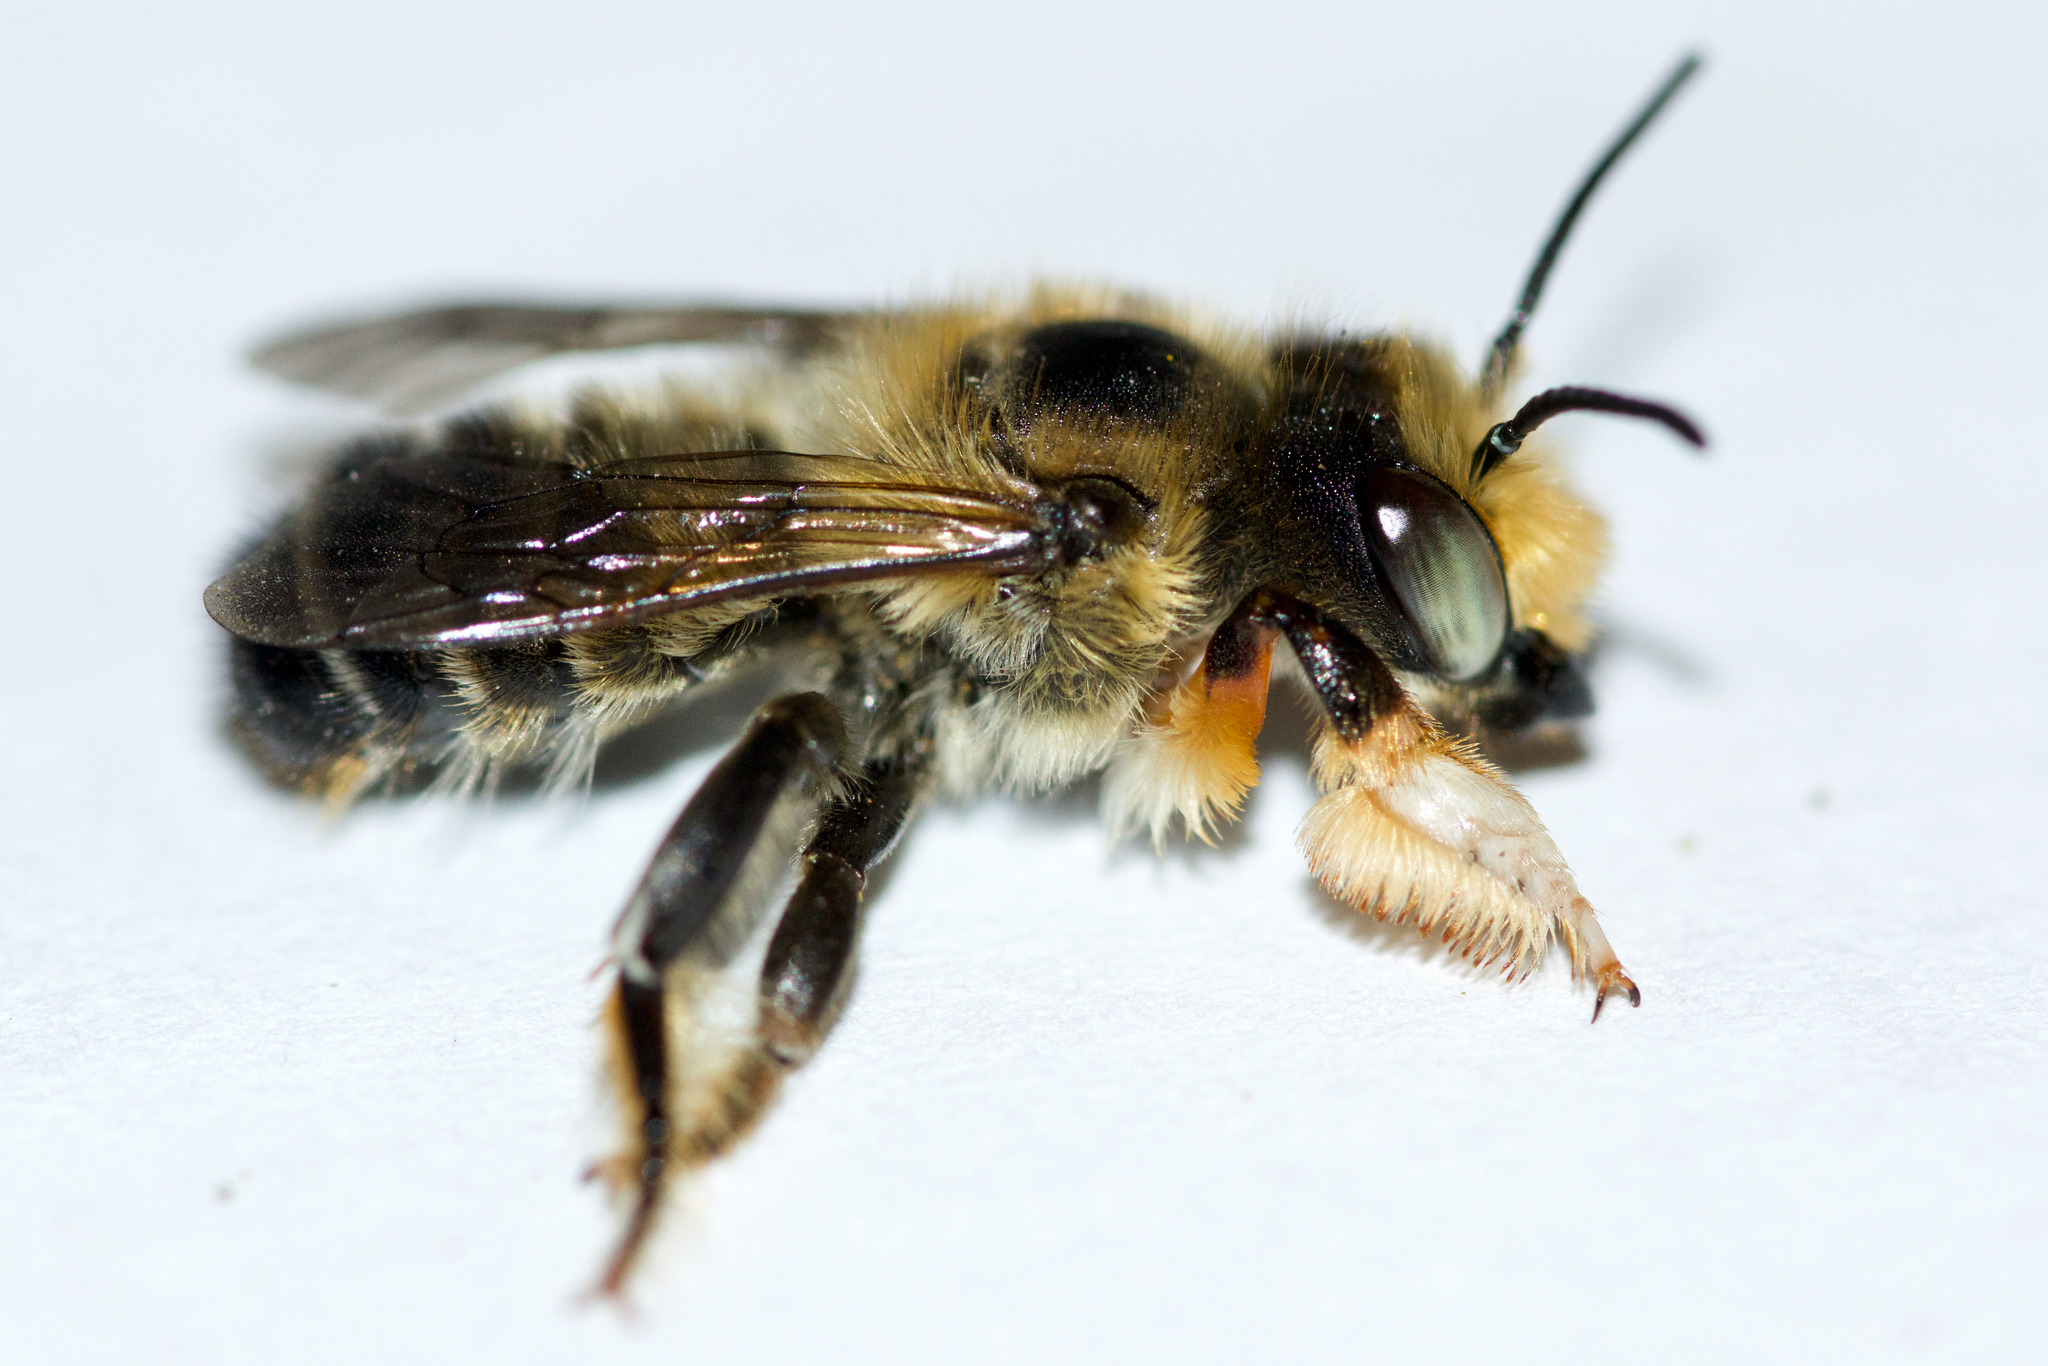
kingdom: Animalia
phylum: Arthropoda
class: Insecta
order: Hymenoptera
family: Megachilidae
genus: Megachile
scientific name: Megachile frigida
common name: Frigid leafcutter
